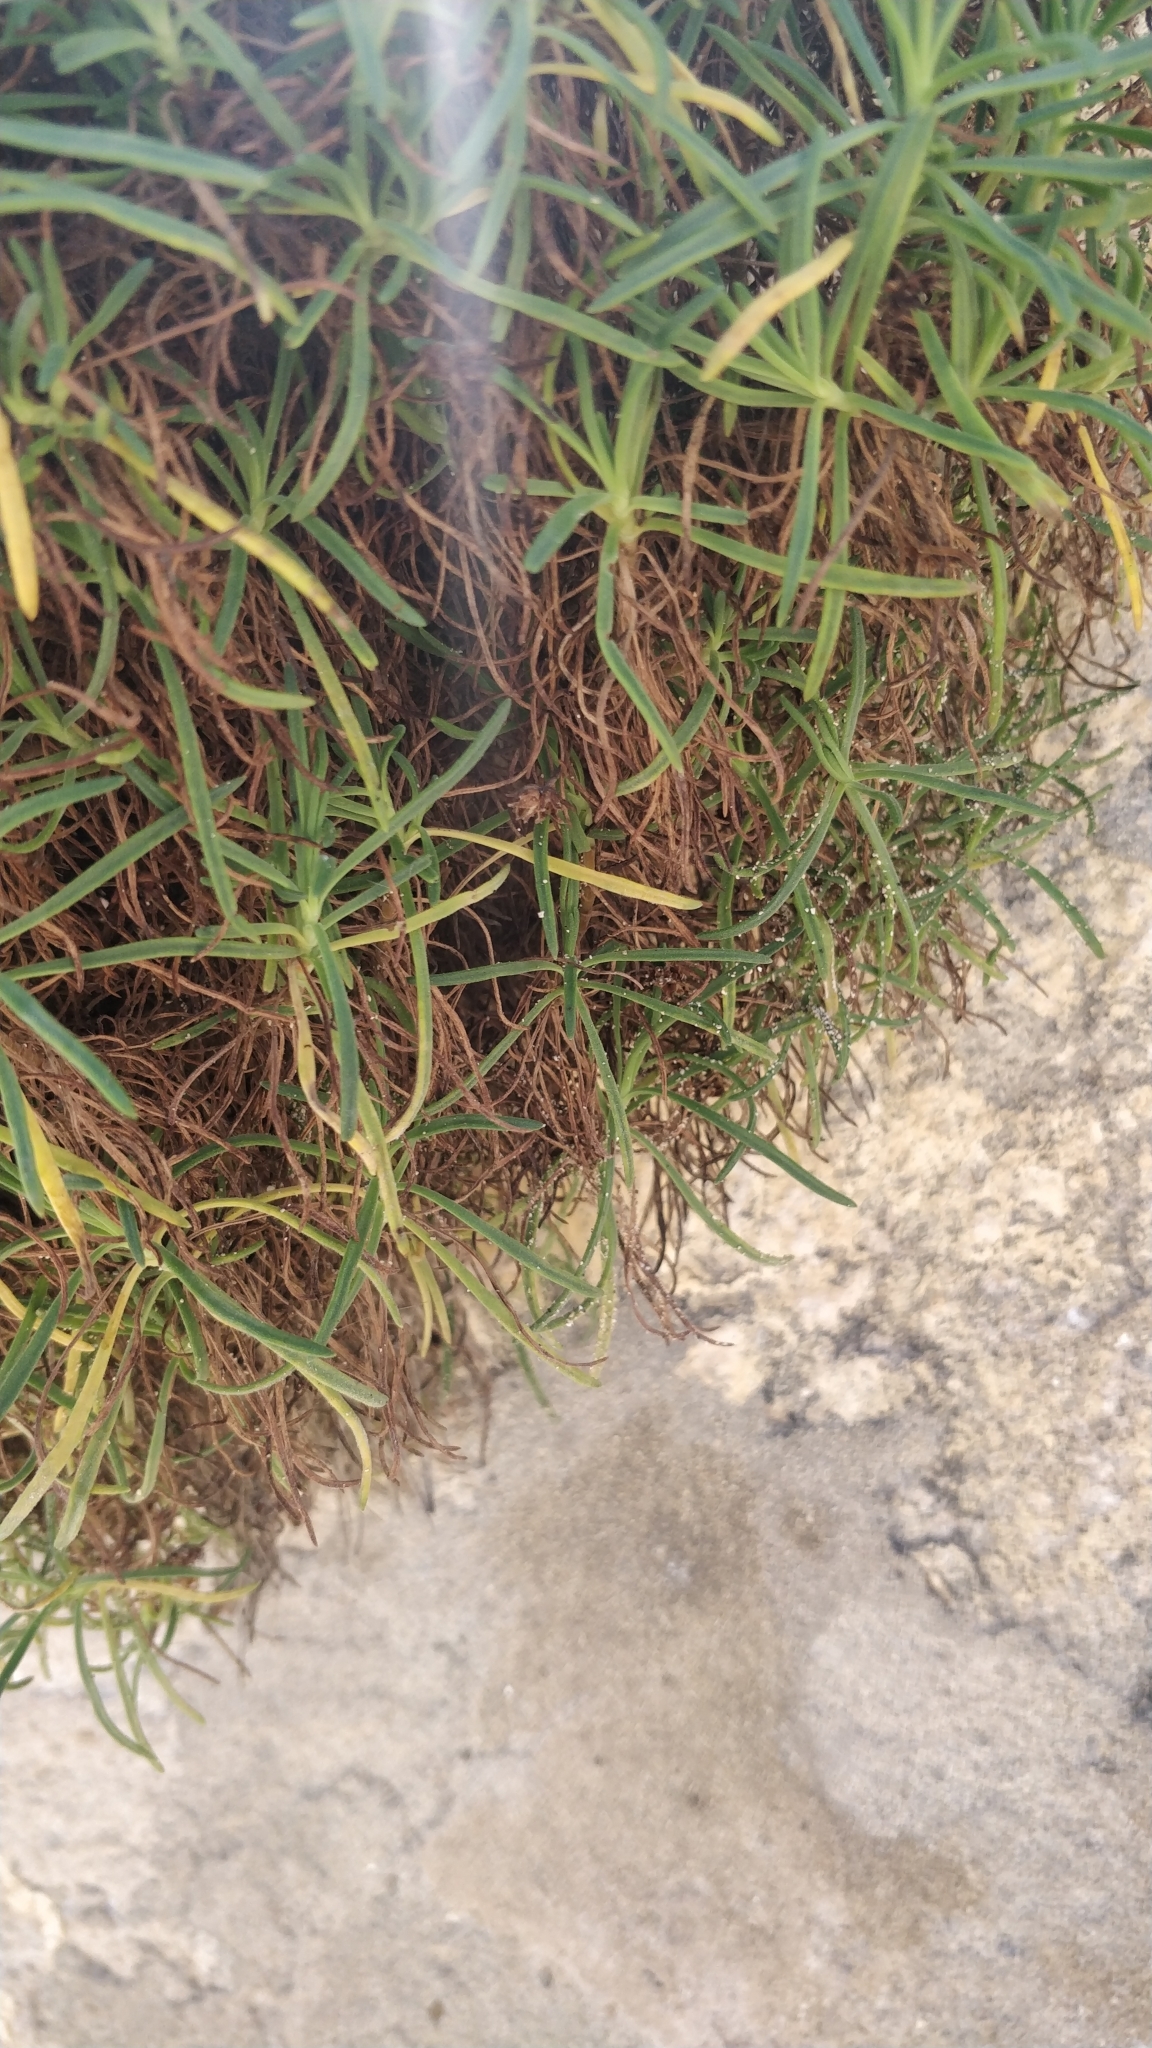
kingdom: Plantae
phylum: Tracheophyta
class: Magnoliopsida
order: Lamiales
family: Plantaginaceae
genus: Plantago
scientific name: Plantago arborescens
